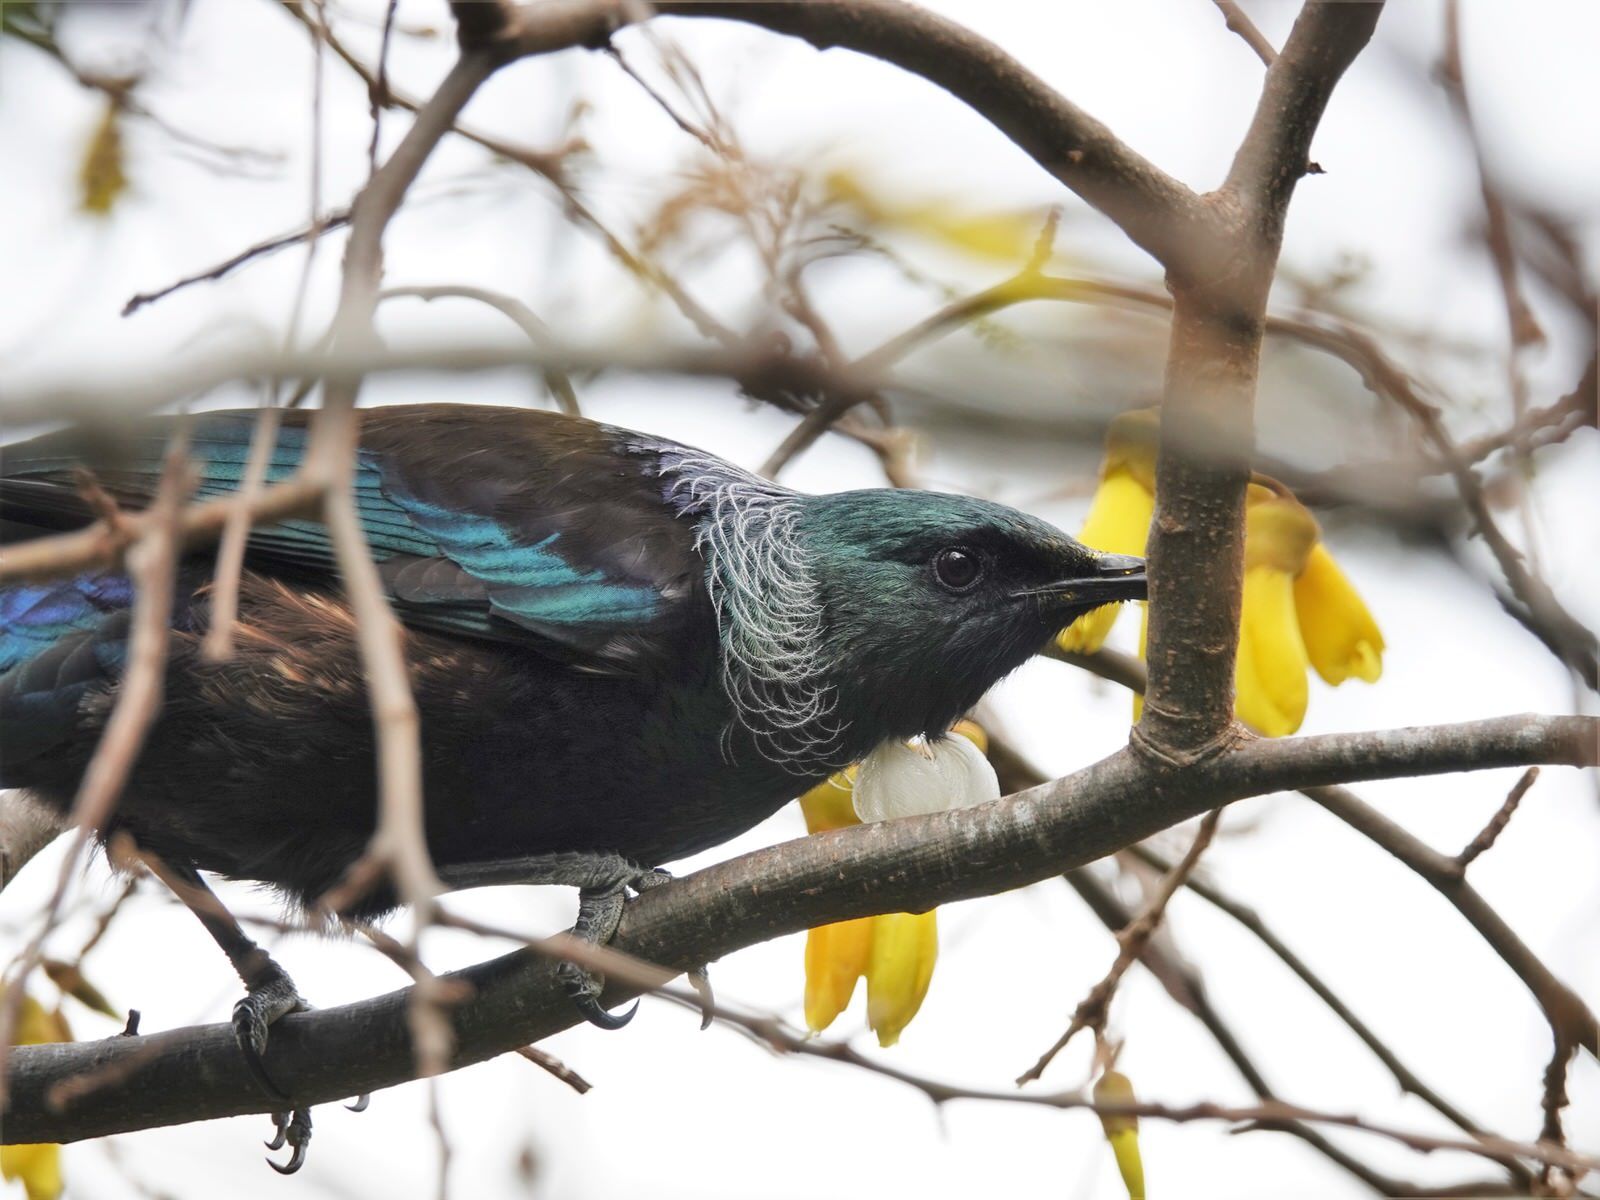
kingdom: Animalia
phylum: Chordata
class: Aves
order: Passeriformes
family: Meliphagidae
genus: Prosthemadera
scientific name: Prosthemadera novaeseelandiae
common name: Tui
